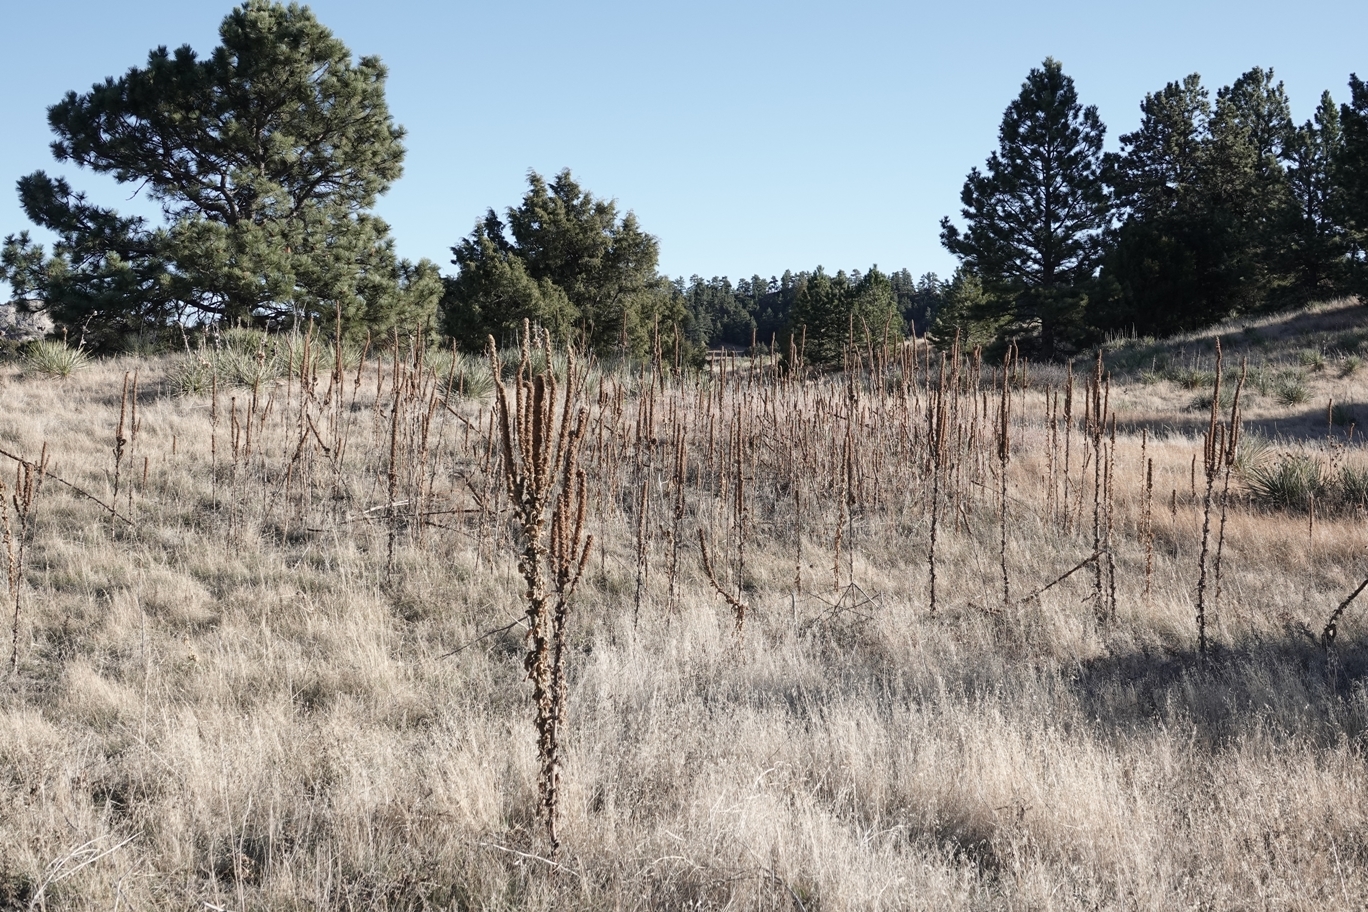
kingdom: Plantae
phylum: Tracheophyta
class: Magnoliopsida
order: Lamiales
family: Scrophulariaceae
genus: Verbascum
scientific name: Verbascum thapsus
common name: Common mullein
